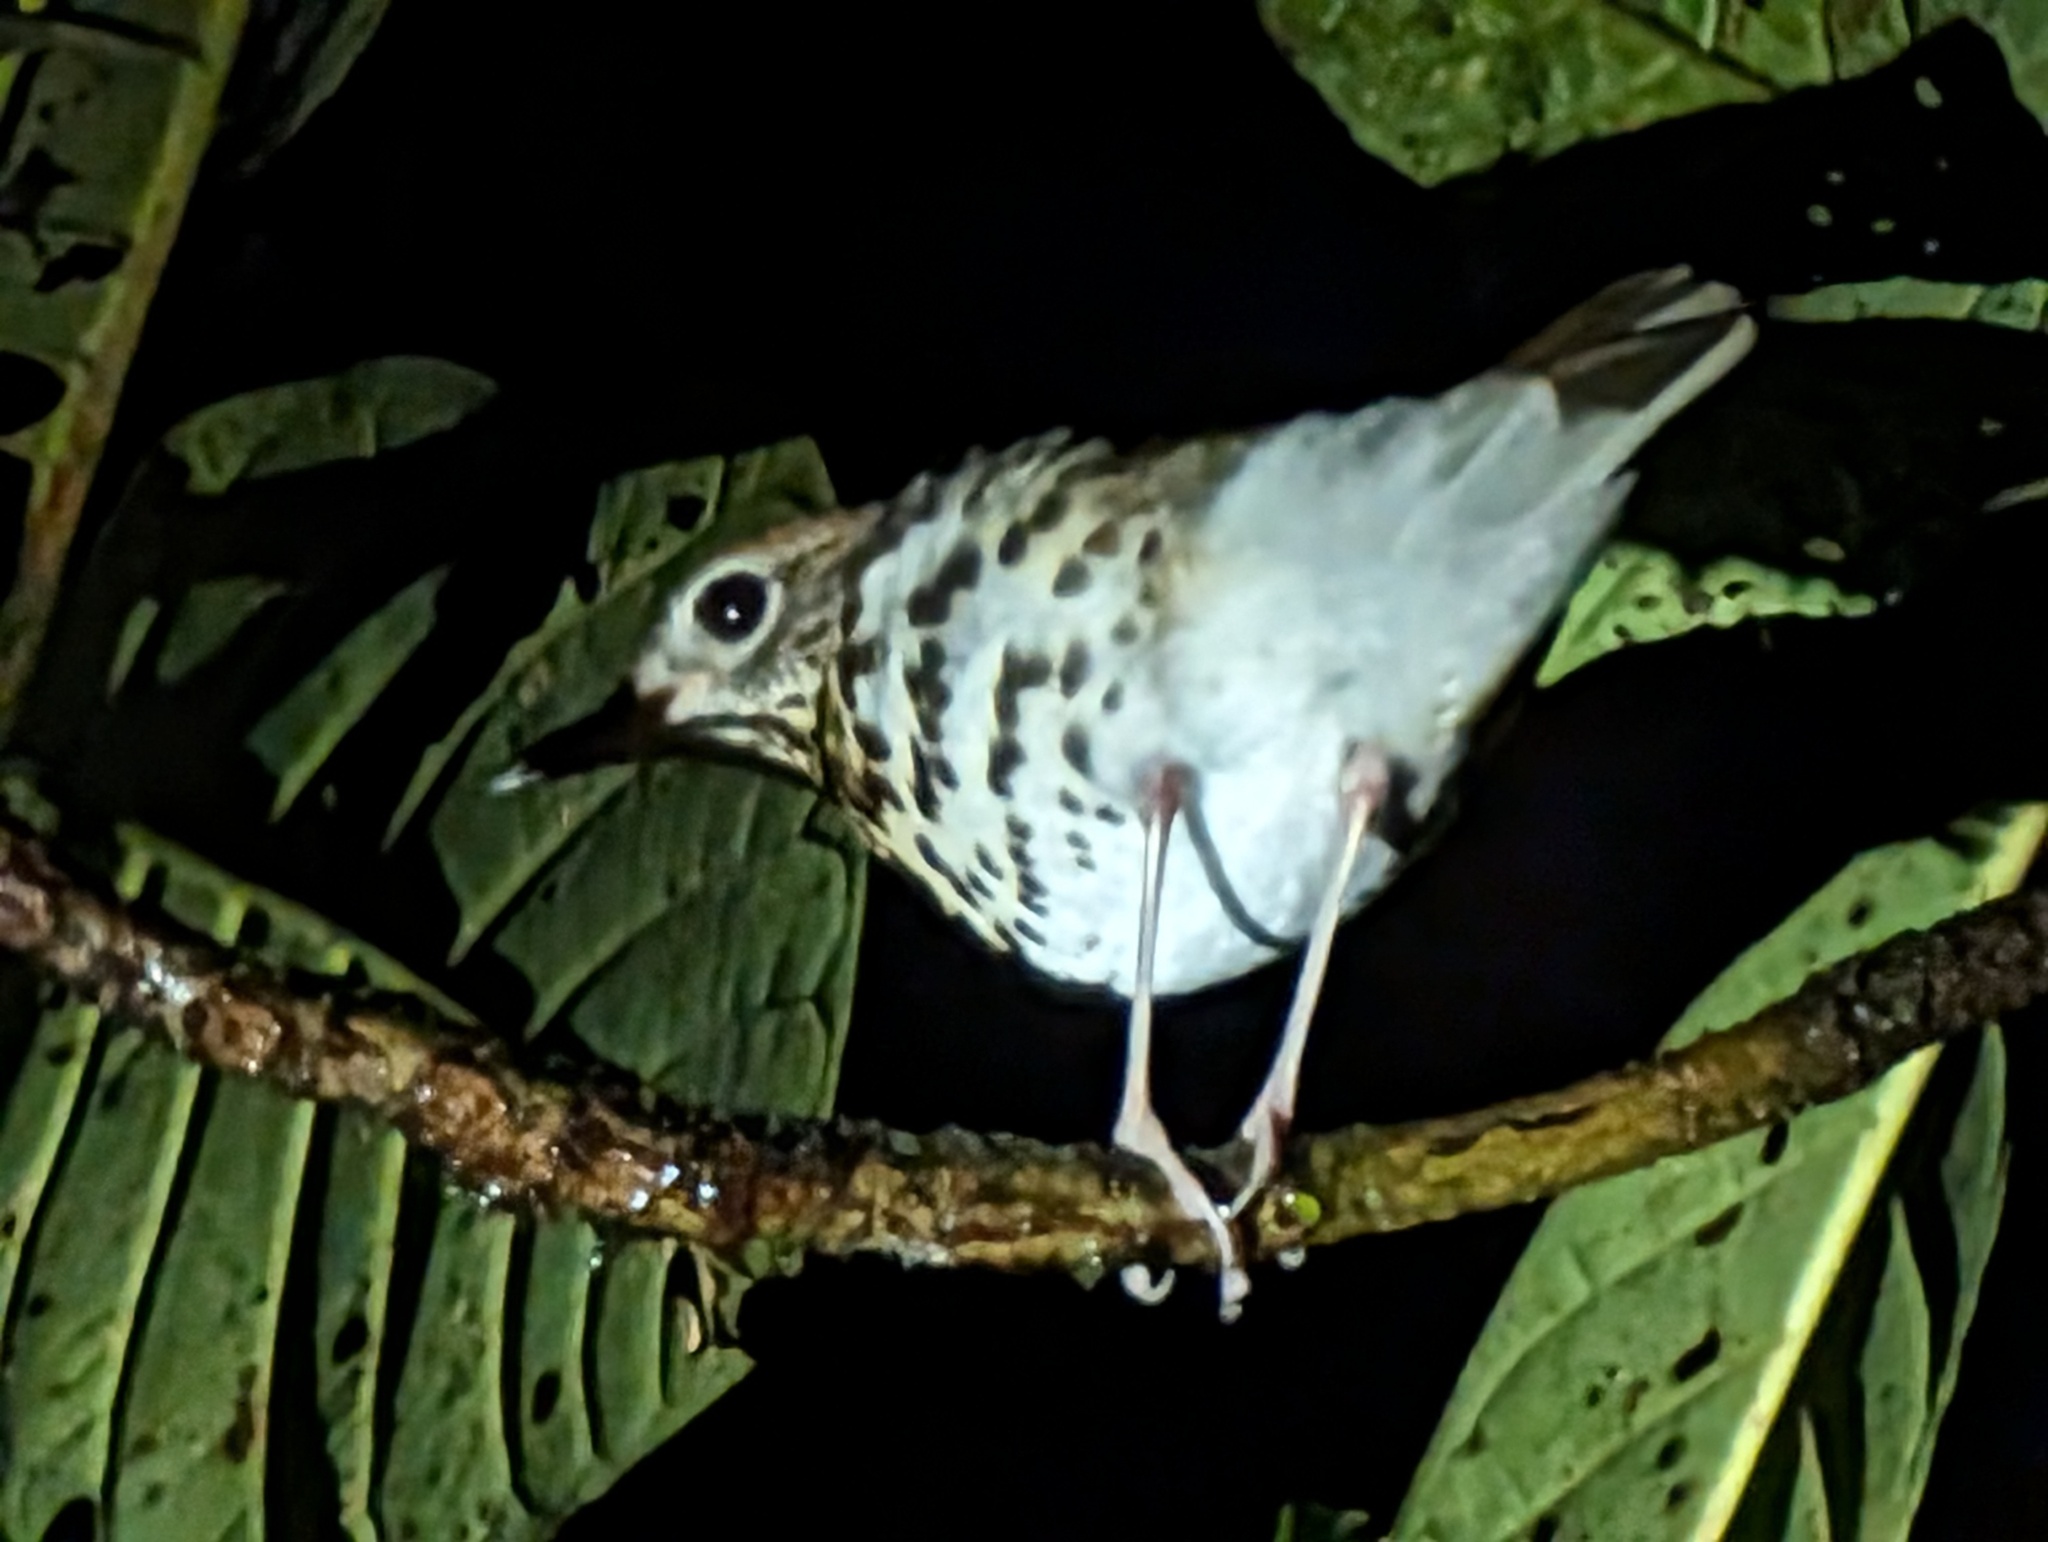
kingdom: Animalia
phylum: Chordata
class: Aves
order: Passeriformes
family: Turdidae
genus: Hylocichla
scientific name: Hylocichla mustelina
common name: Wood thrush
